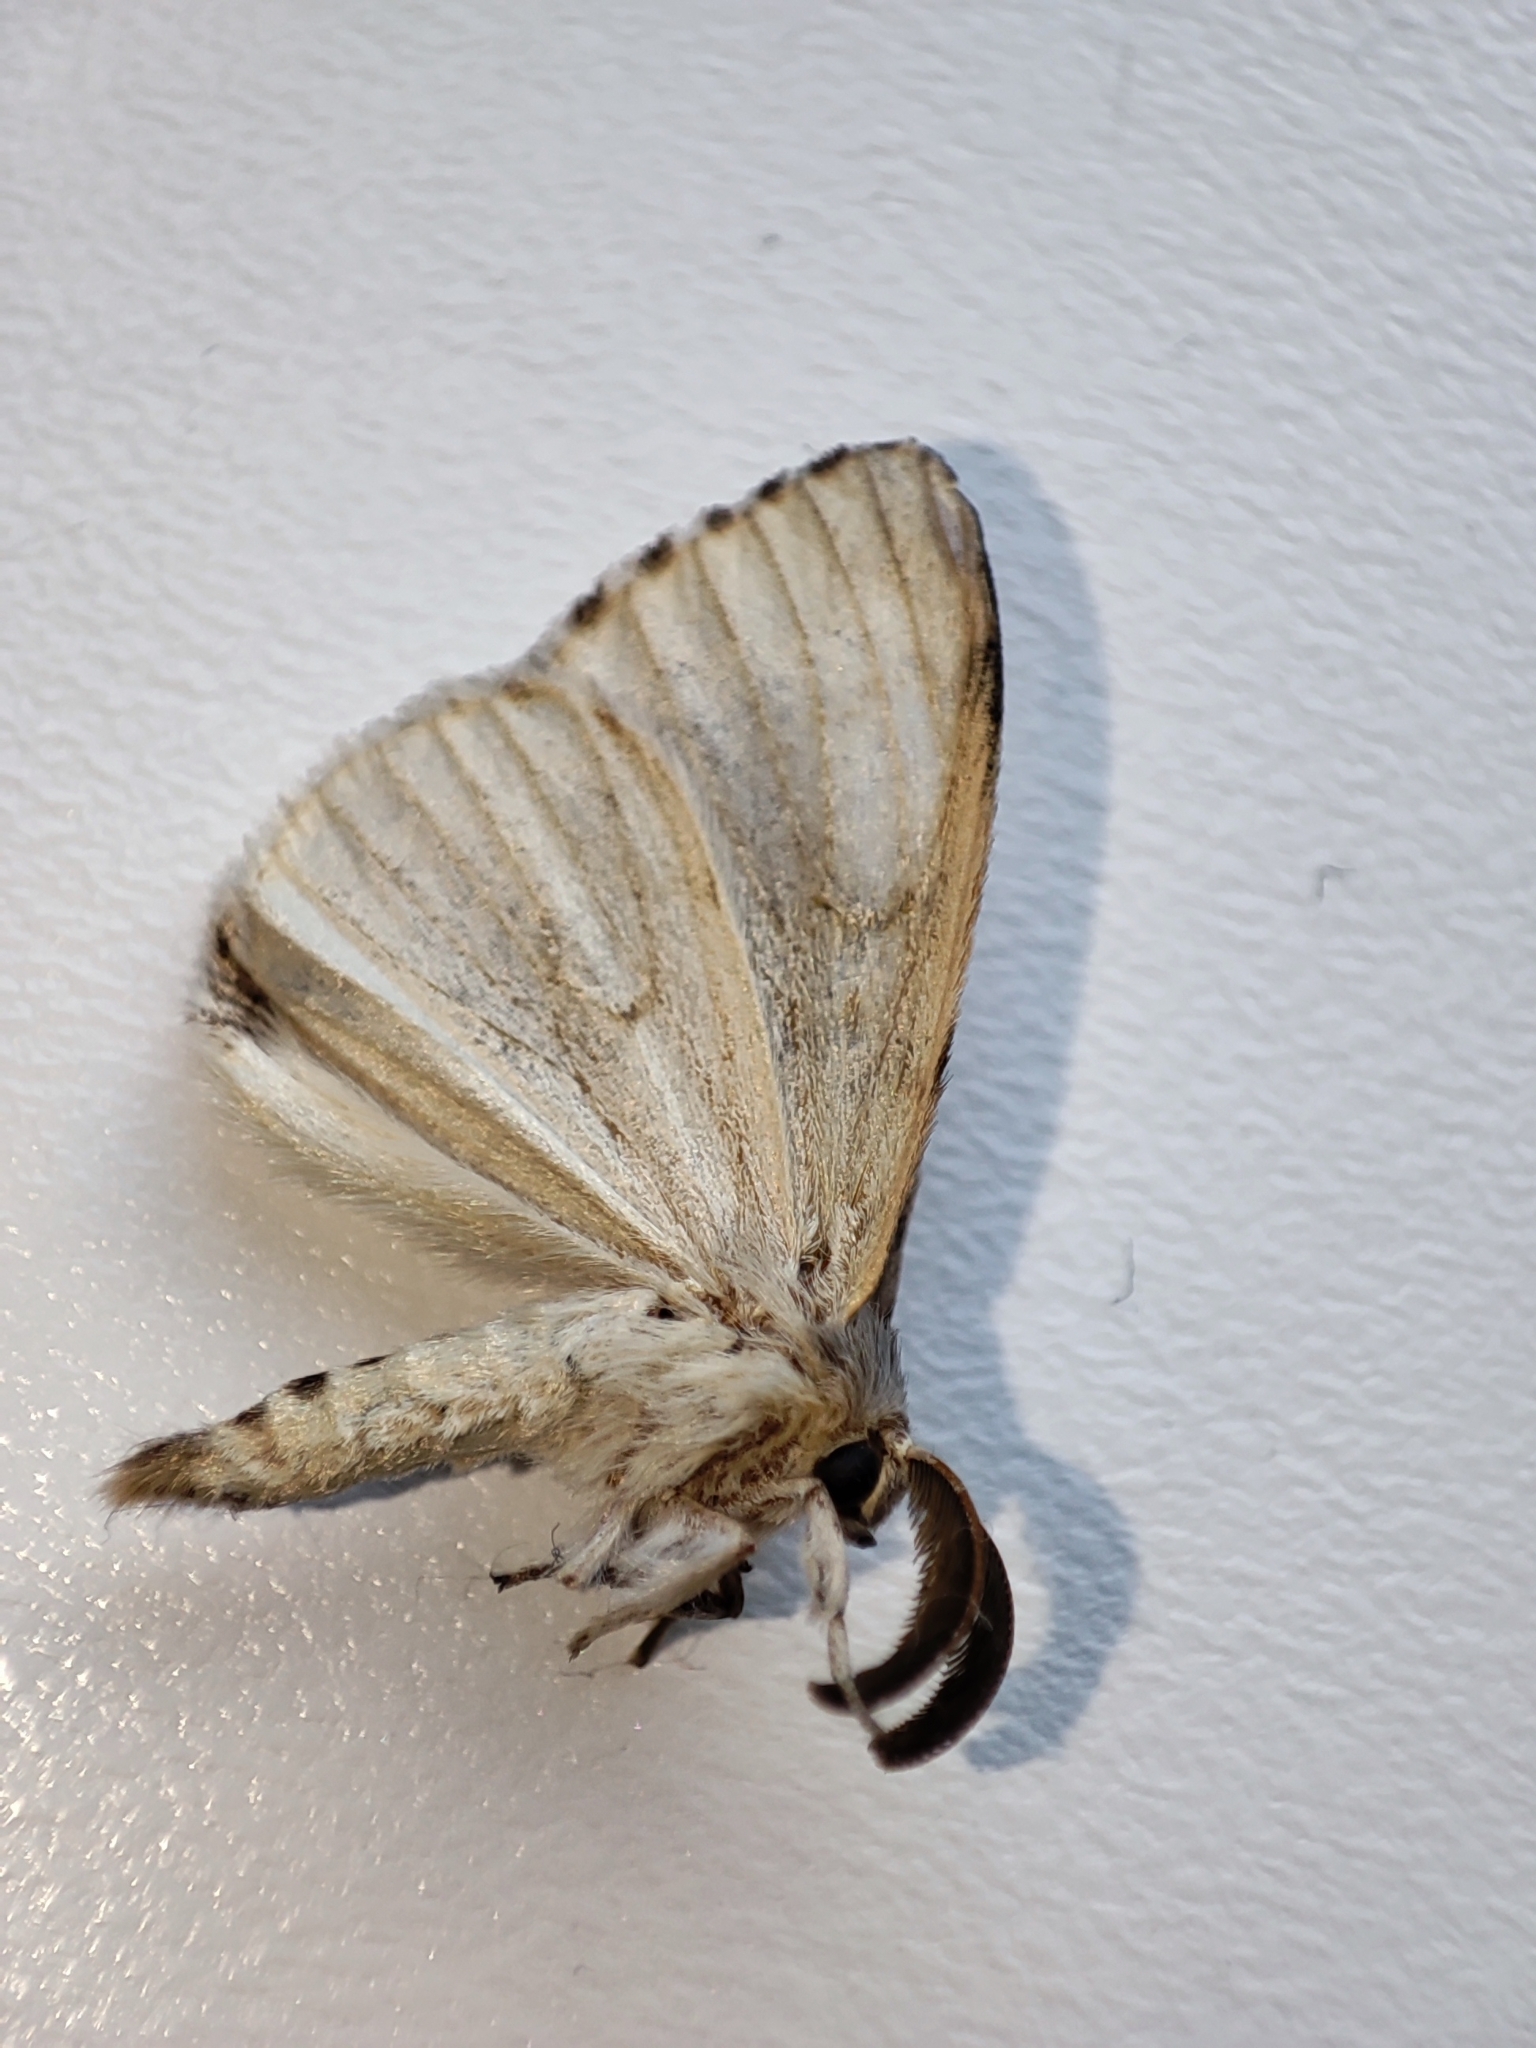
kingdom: Animalia
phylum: Arthropoda
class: Insecta
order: Lepidoptera
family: Erebidae
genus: Lymantria
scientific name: Lymantria dispar
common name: Gypsy moth
